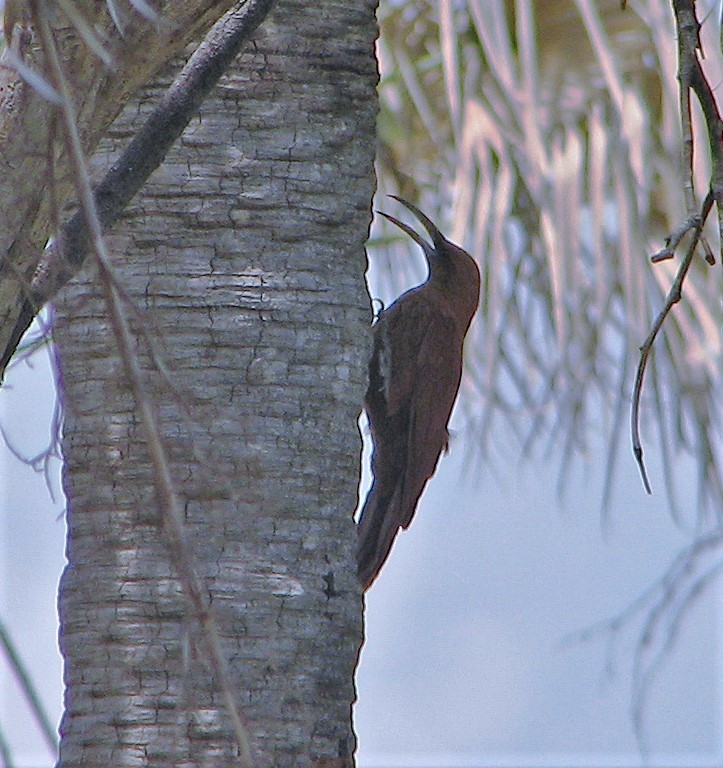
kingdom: Animalia
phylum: Chordata
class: Aves
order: Passeriformes
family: Furnariidae
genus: Xiphocolaptes
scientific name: Xiphocolaptes major
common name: Great rufous woodcreeper
